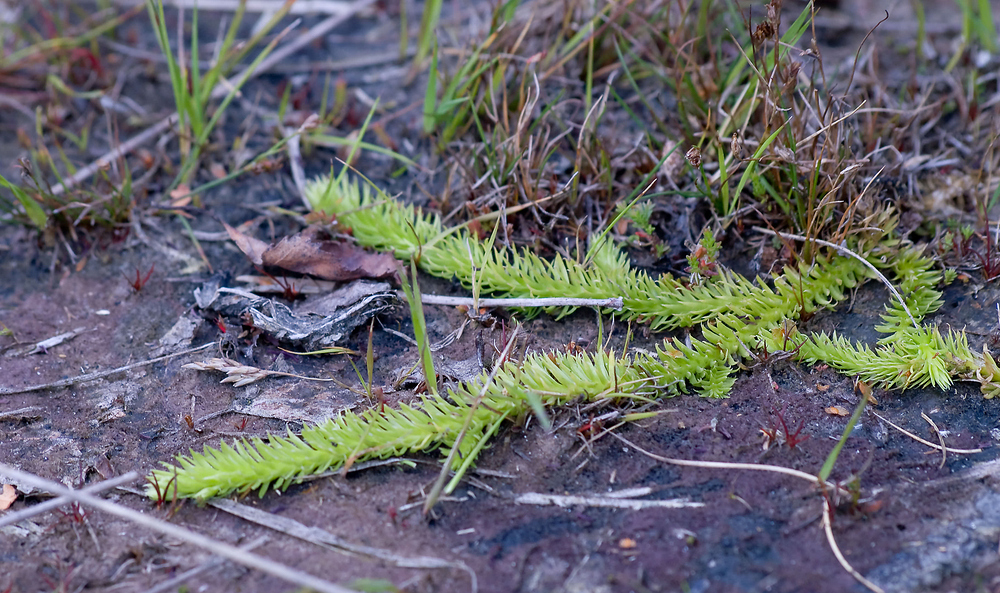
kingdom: Plantae
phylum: Tracheophyta
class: Lycopodiopsida
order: Lycopodiales
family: Lycopodiaceae
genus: Lycopodiella
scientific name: Lycopodiella inundata
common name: Marsh clubmoss
